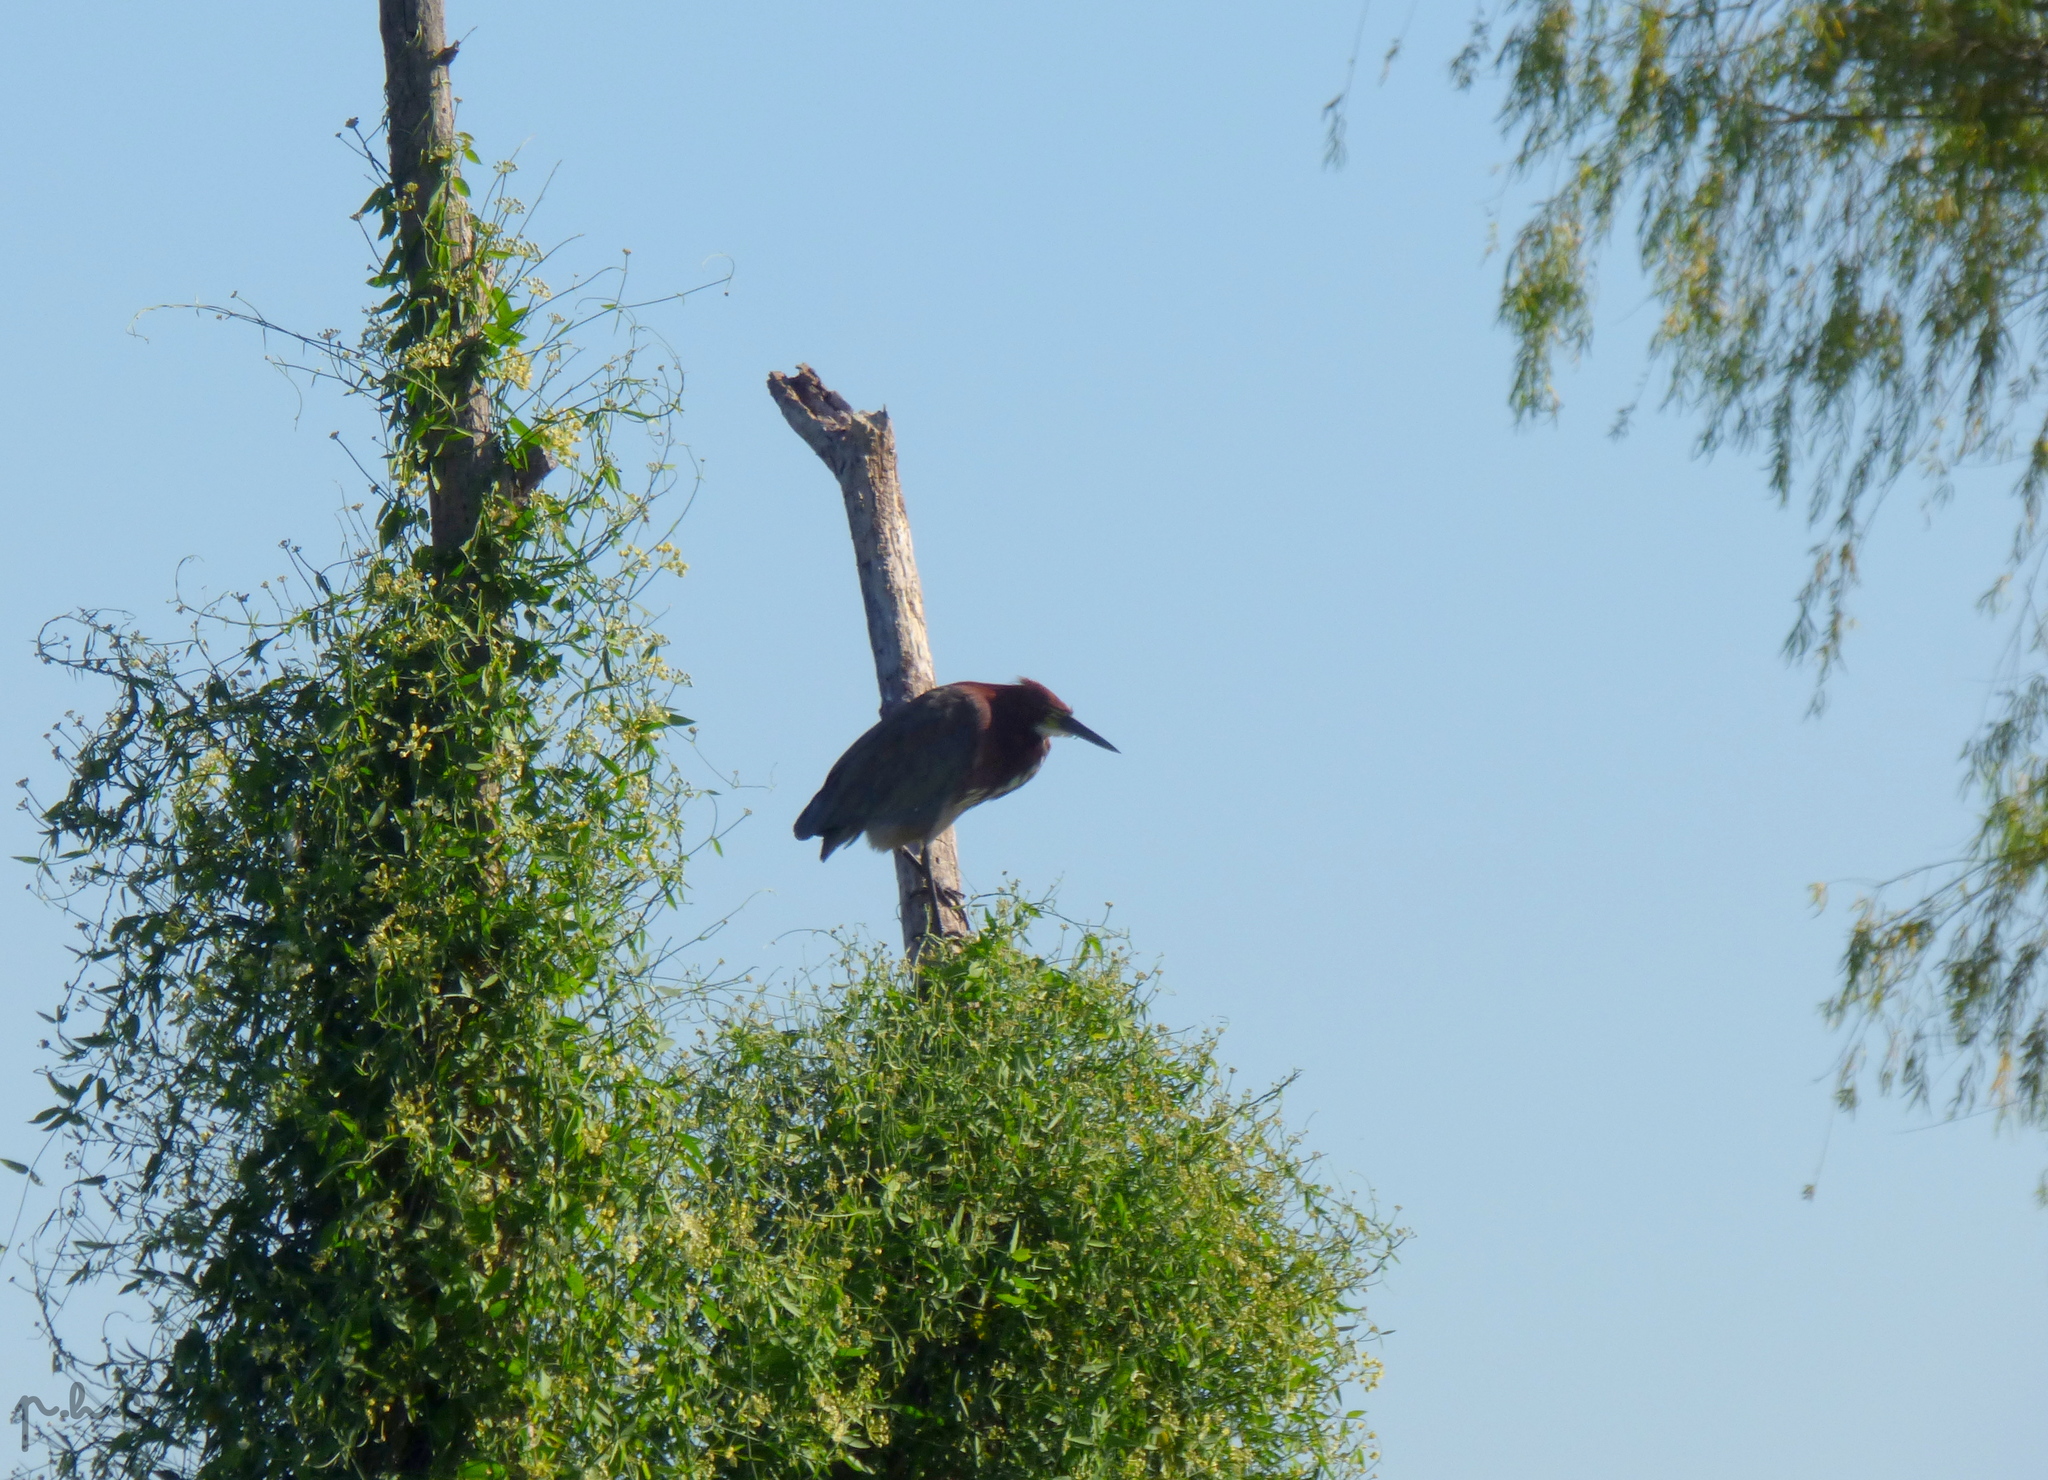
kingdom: Animalia
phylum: Chordata
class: Aves
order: Pelecaniformes
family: Ardeidae
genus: Tigrisoma
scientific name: Tigrisoma lineatum
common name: Rufescent tiger-heron
